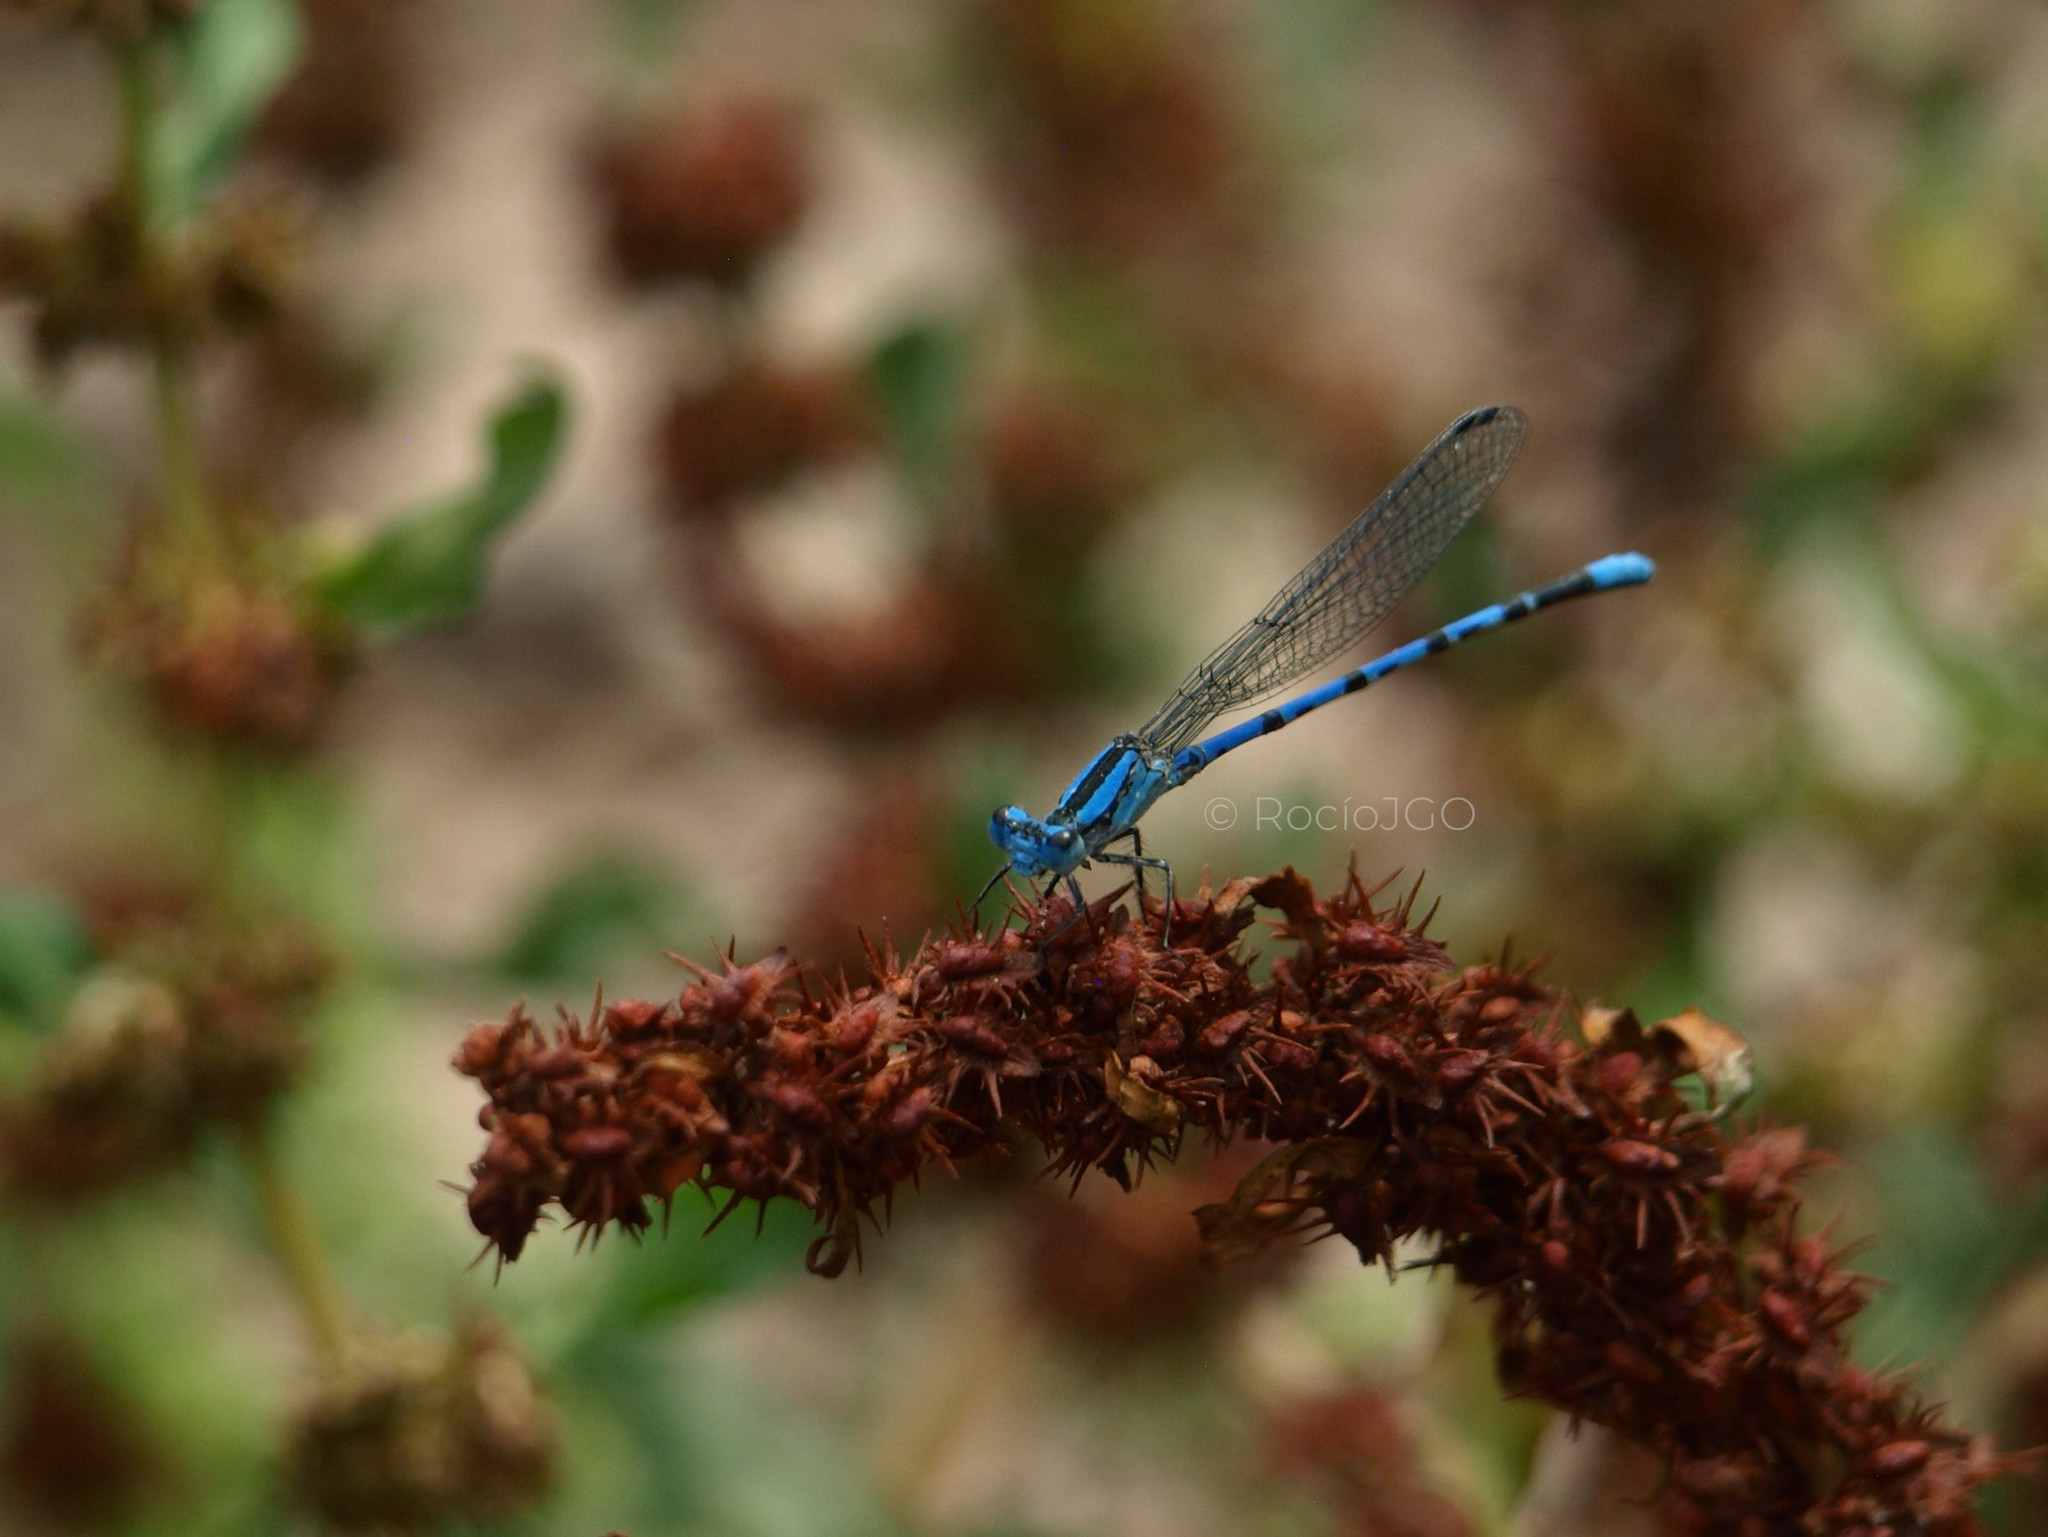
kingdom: Animalia
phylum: Arthropoda
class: Insecta
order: Odonata
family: Coenagrionidae
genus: Argia
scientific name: Argia carlcooki
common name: Yaqui dancer
